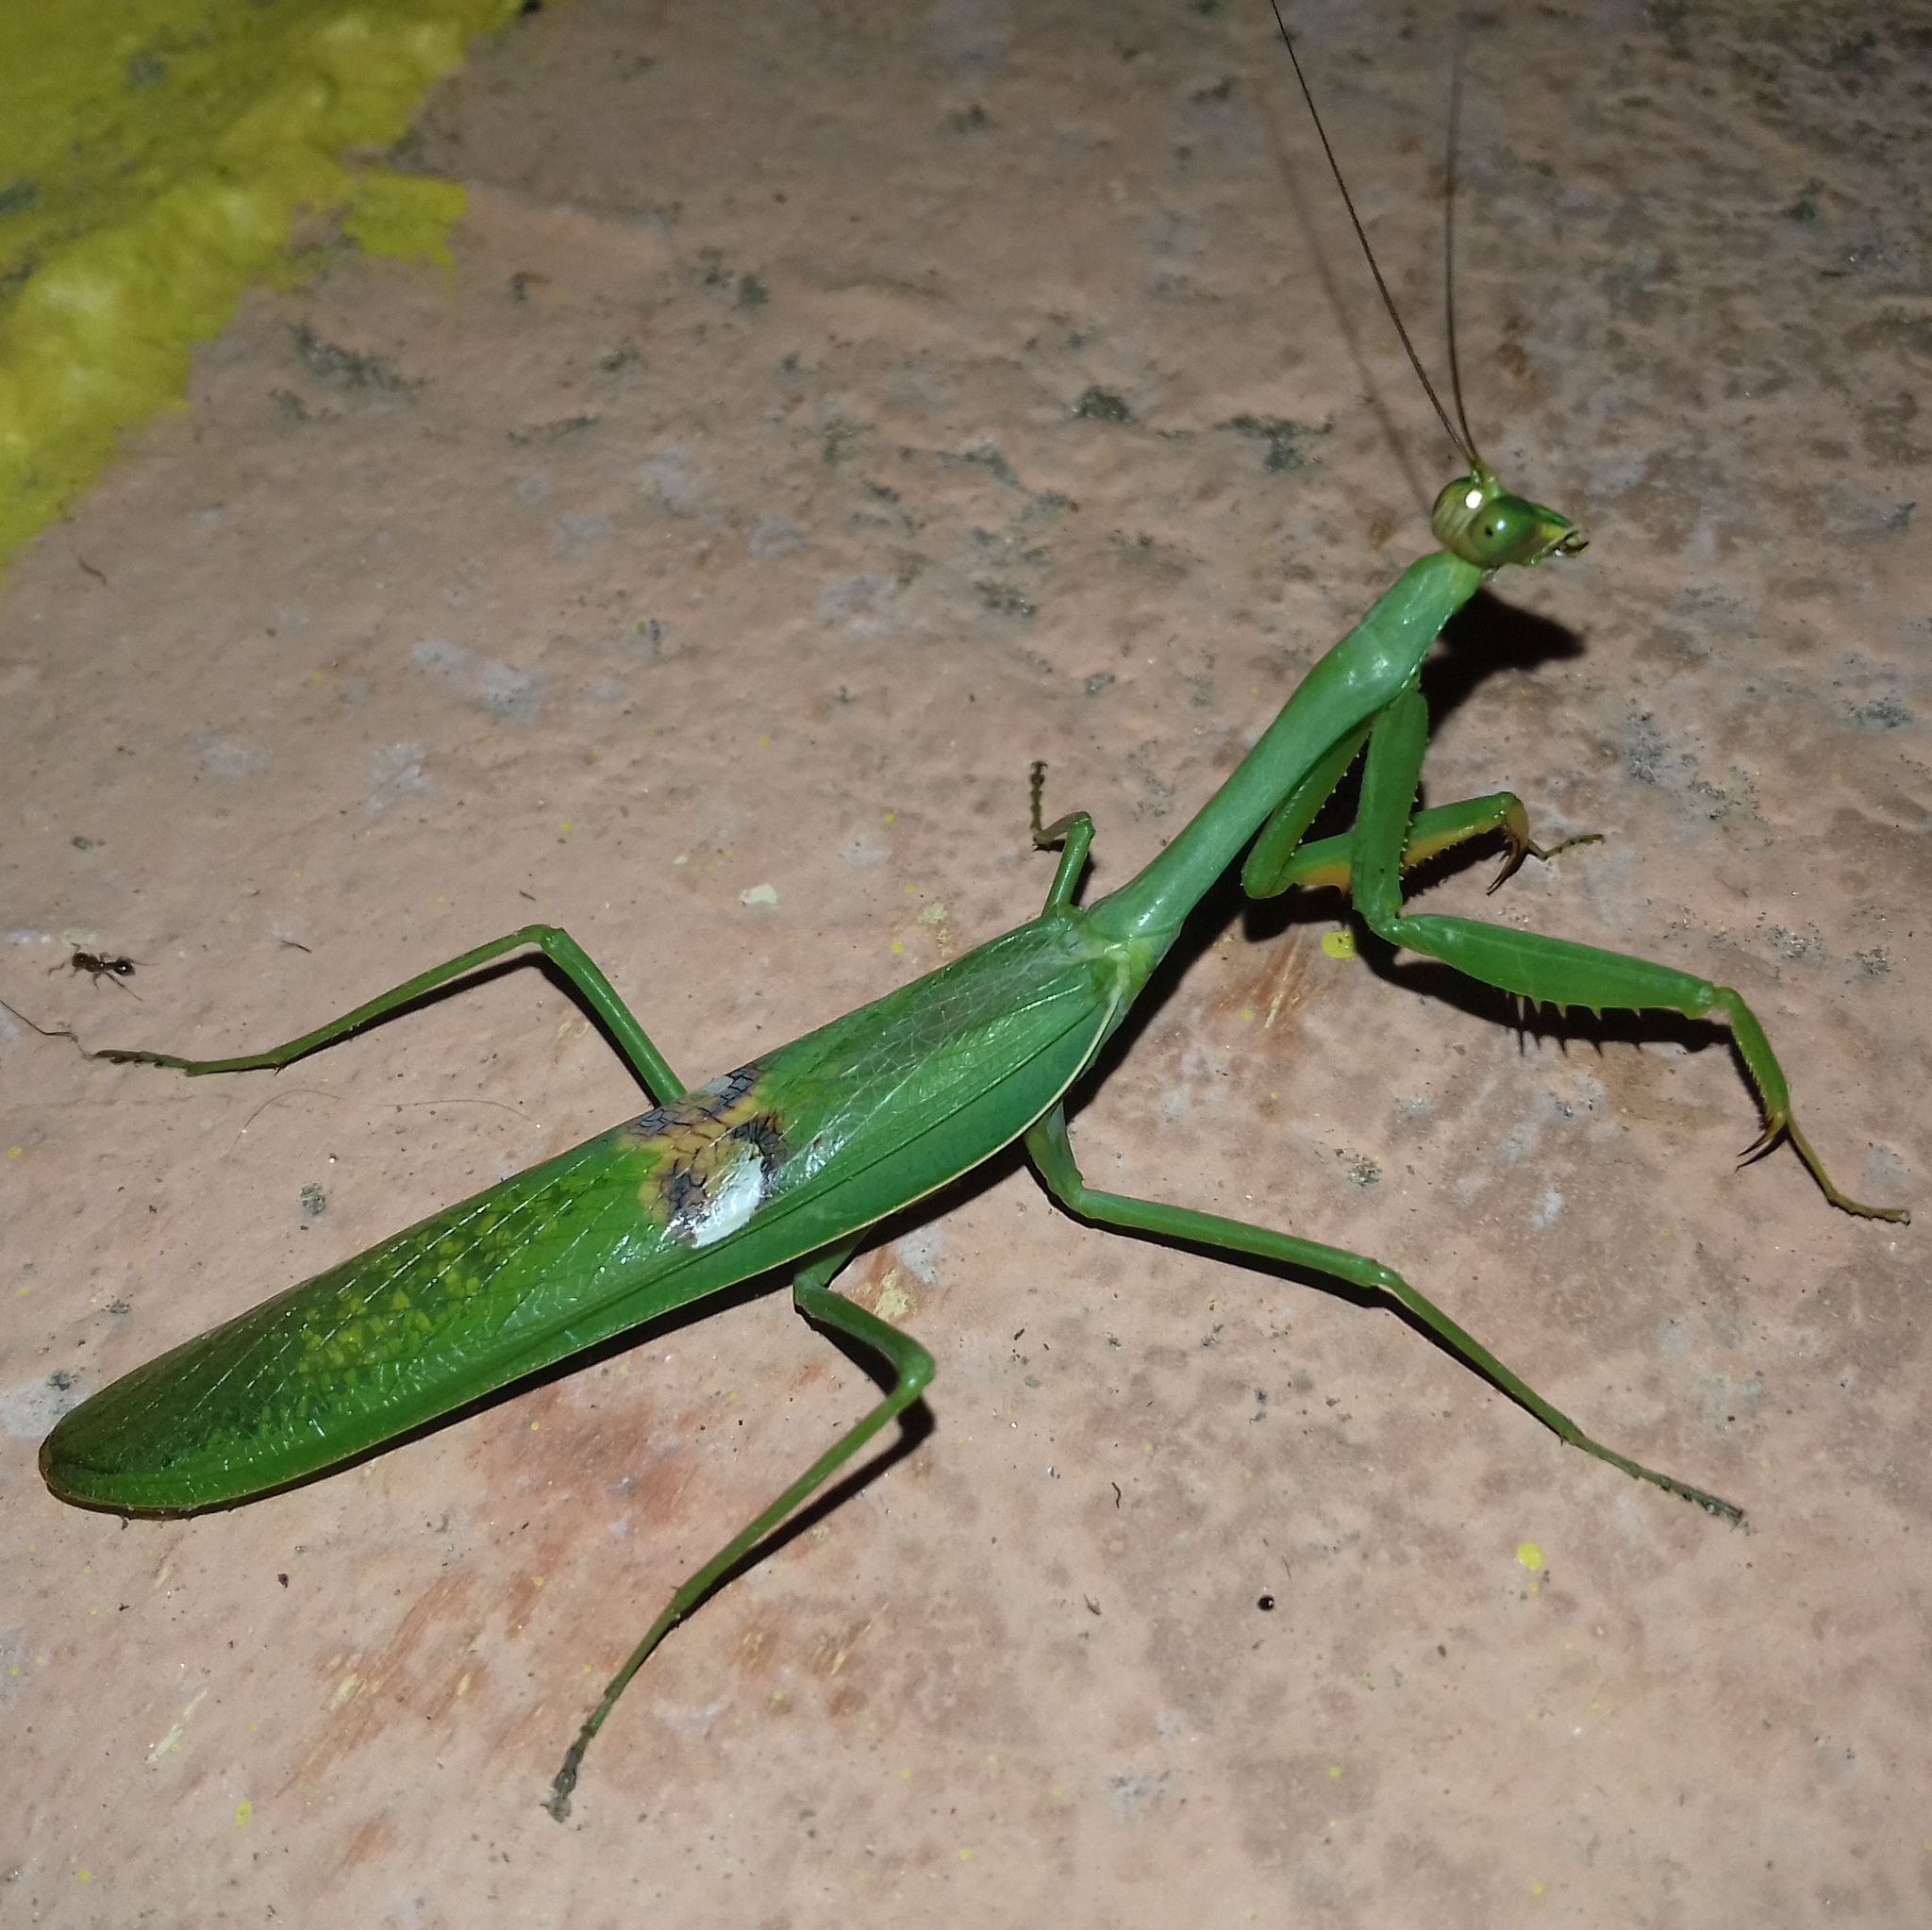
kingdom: Animalia
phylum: Arthropoda
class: Insecta
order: Mantodea
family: Mantidae
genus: Stagmatoptera
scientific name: Stagmatoptera hyaloptera
